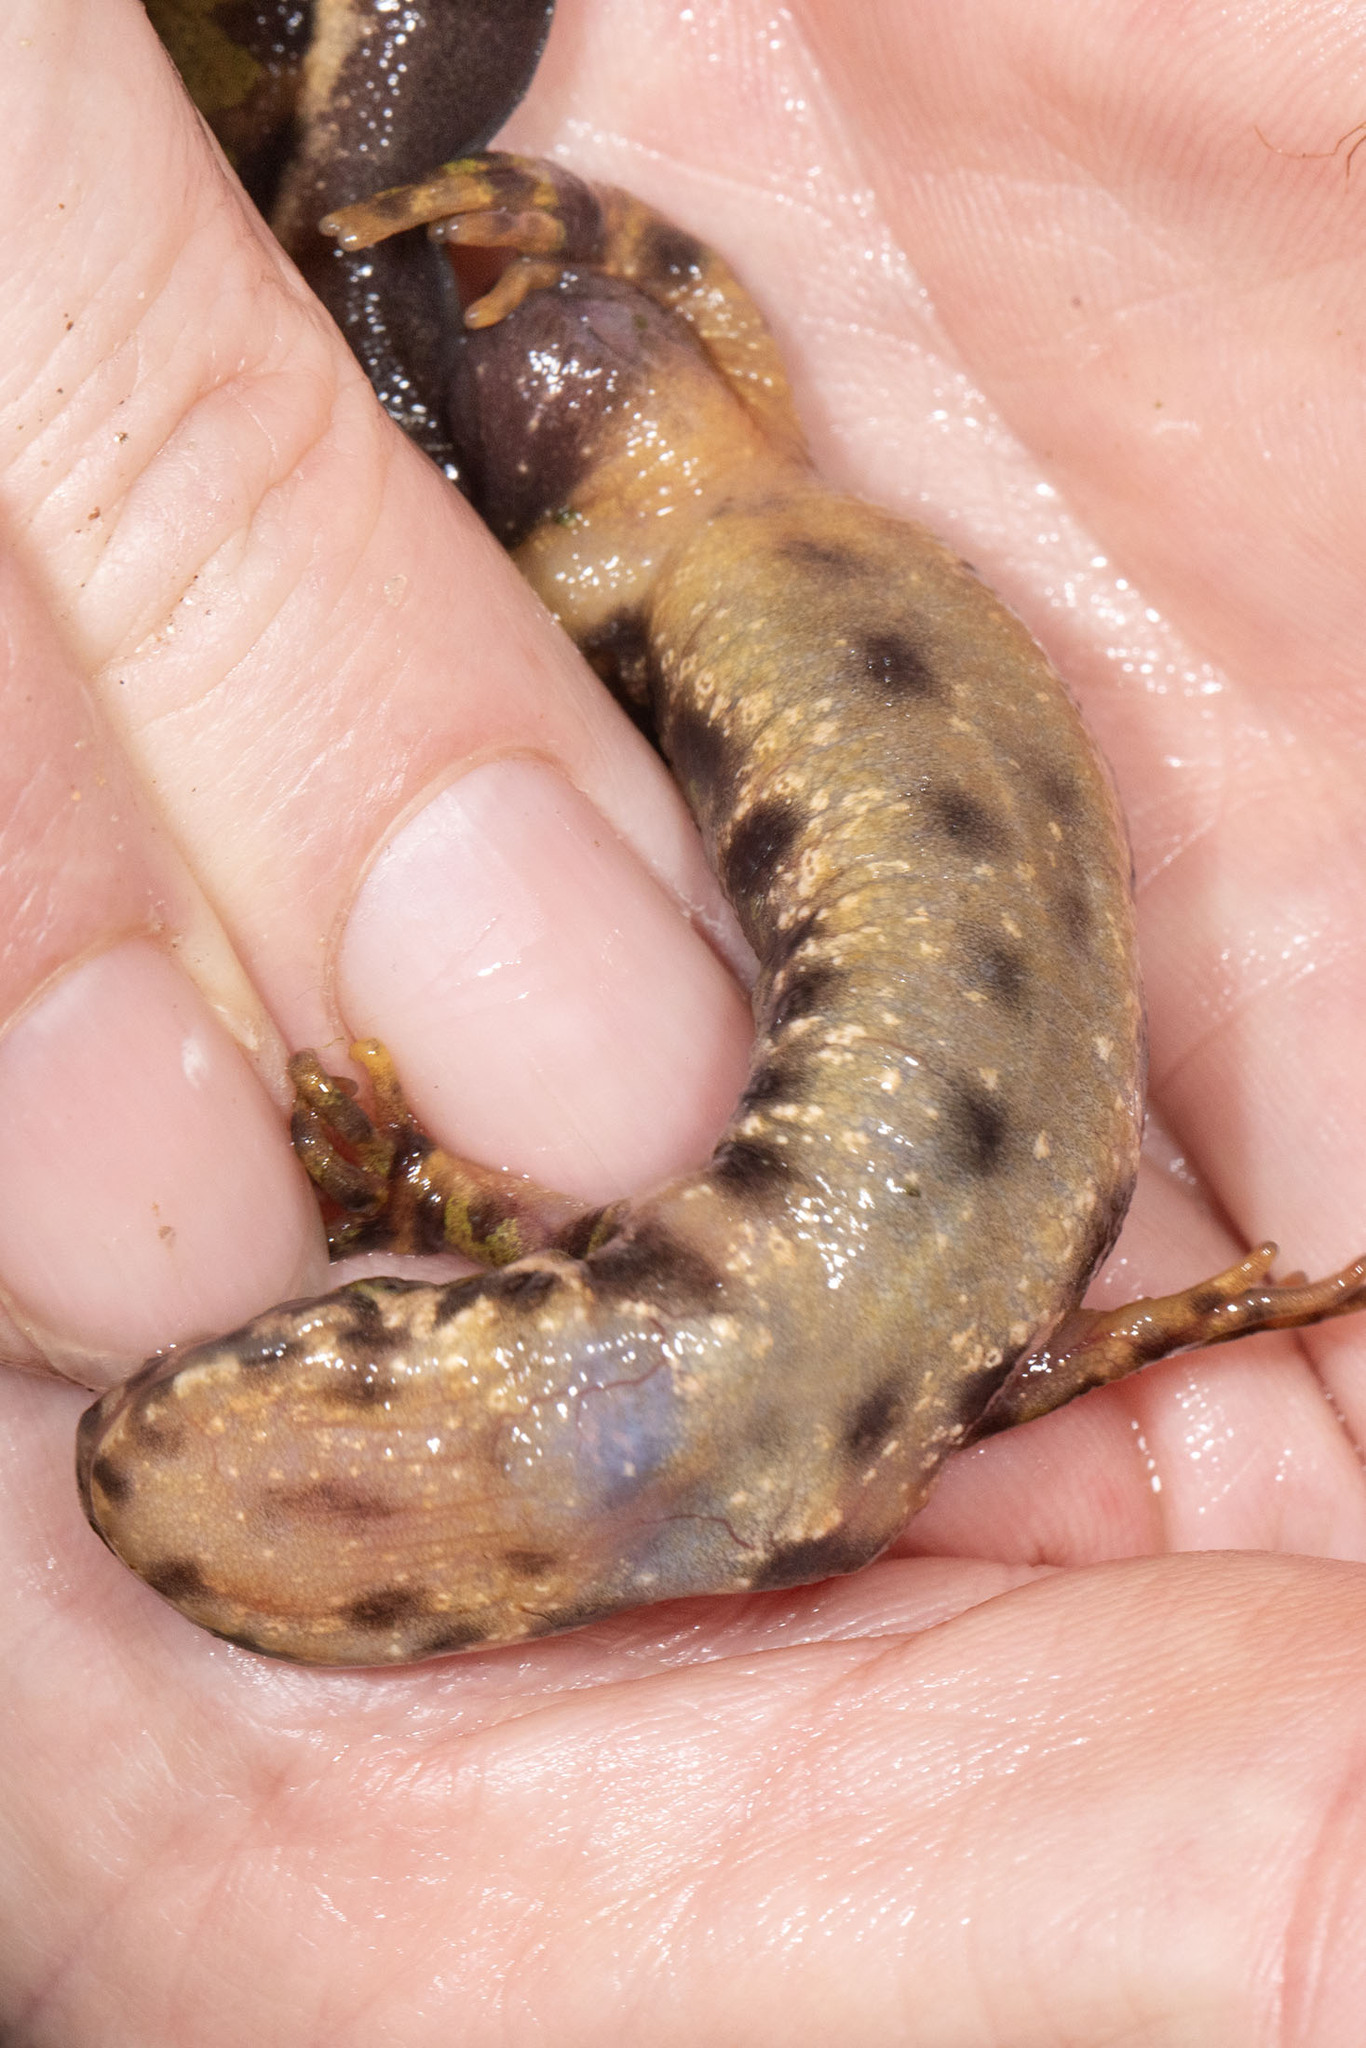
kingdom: Animalia
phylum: Chordata
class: Amphibia
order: Caudata
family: Salamandridae
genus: Triturus
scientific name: Triturus marmoratus
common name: Marbled newt
